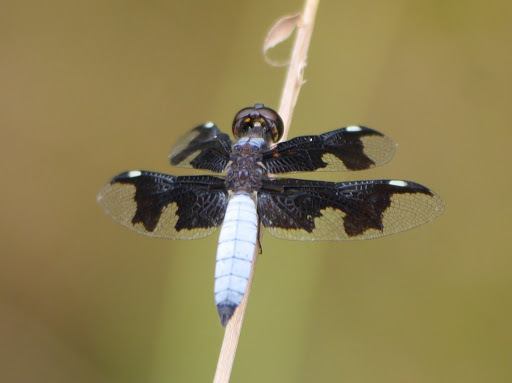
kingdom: Animalia
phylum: Arthropoda
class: Insecta
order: Odonata
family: Libellulidae
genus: Palpopleura
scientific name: Palpopleura portia
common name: Portia widow
